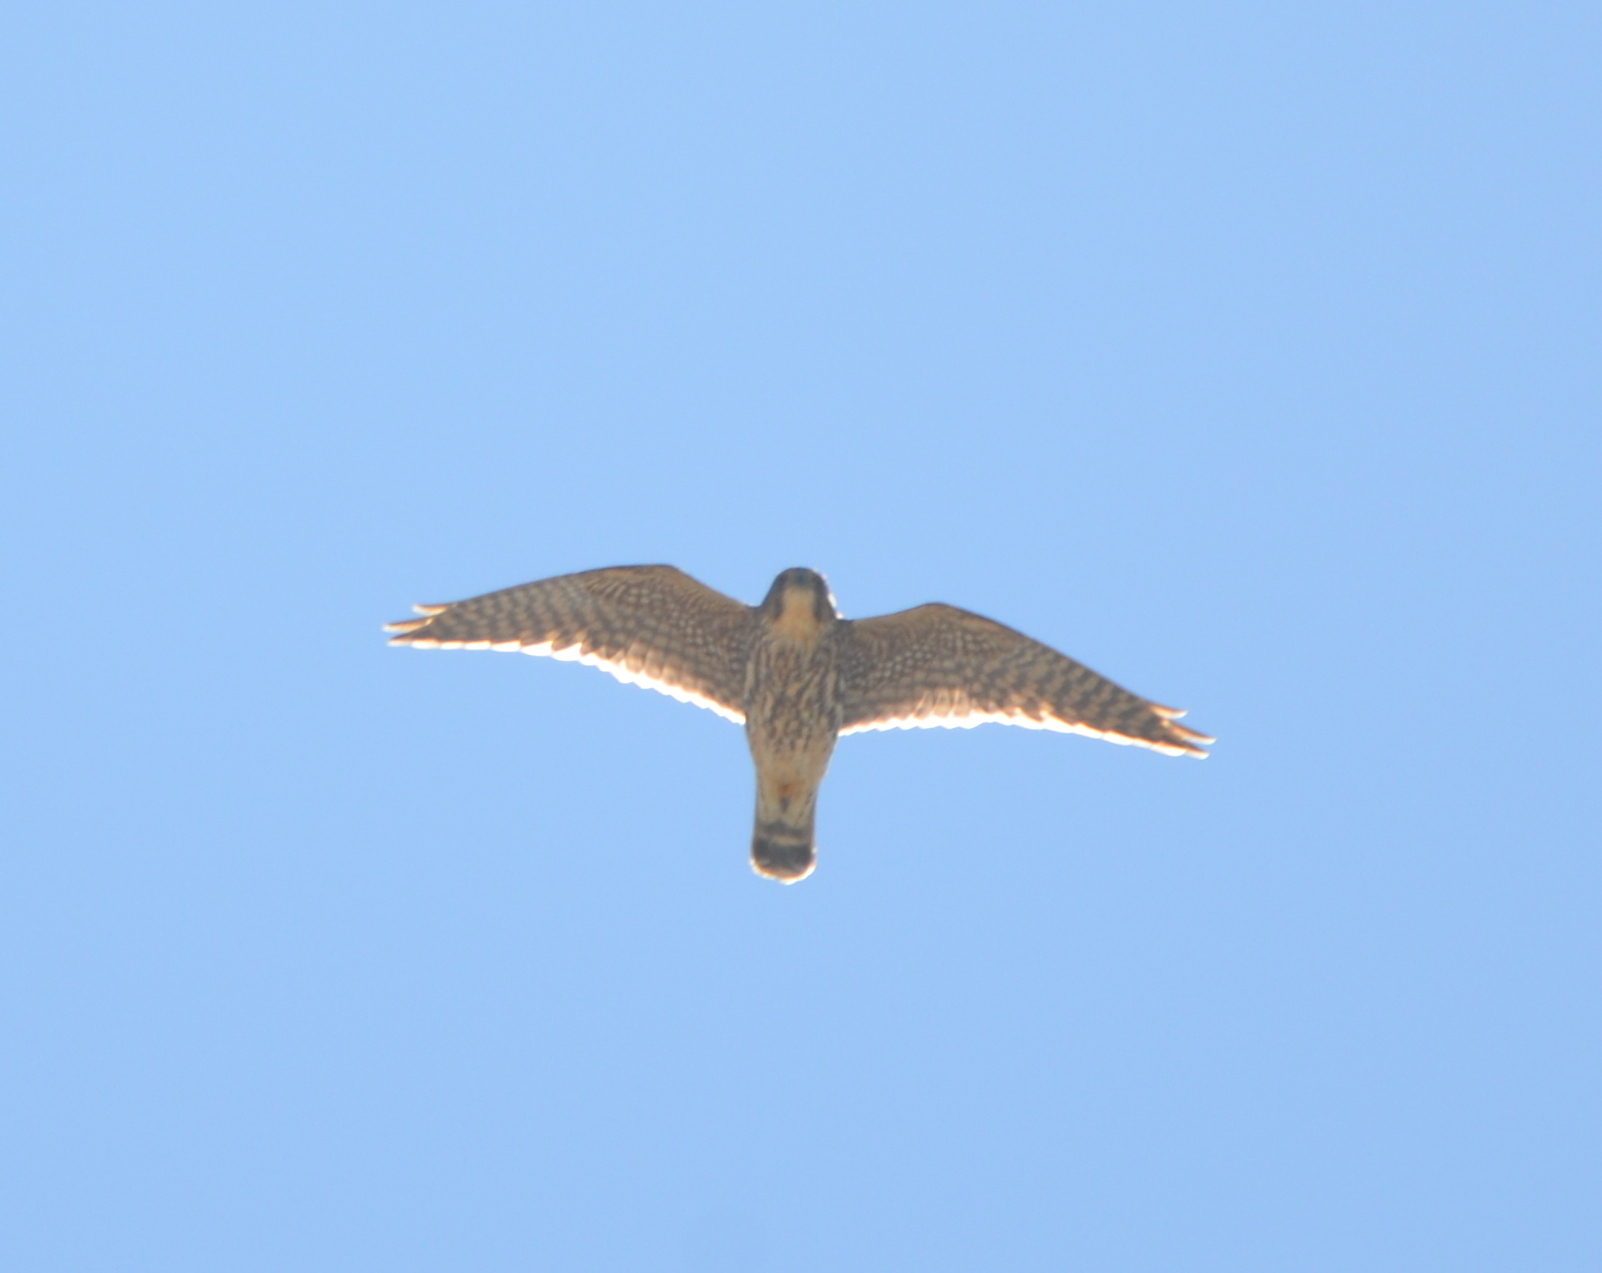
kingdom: Animalia
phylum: Chordata
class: Aves
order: Falconiformes
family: Falconidae
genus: Falco
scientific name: Falco columbarius
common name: Merlin
